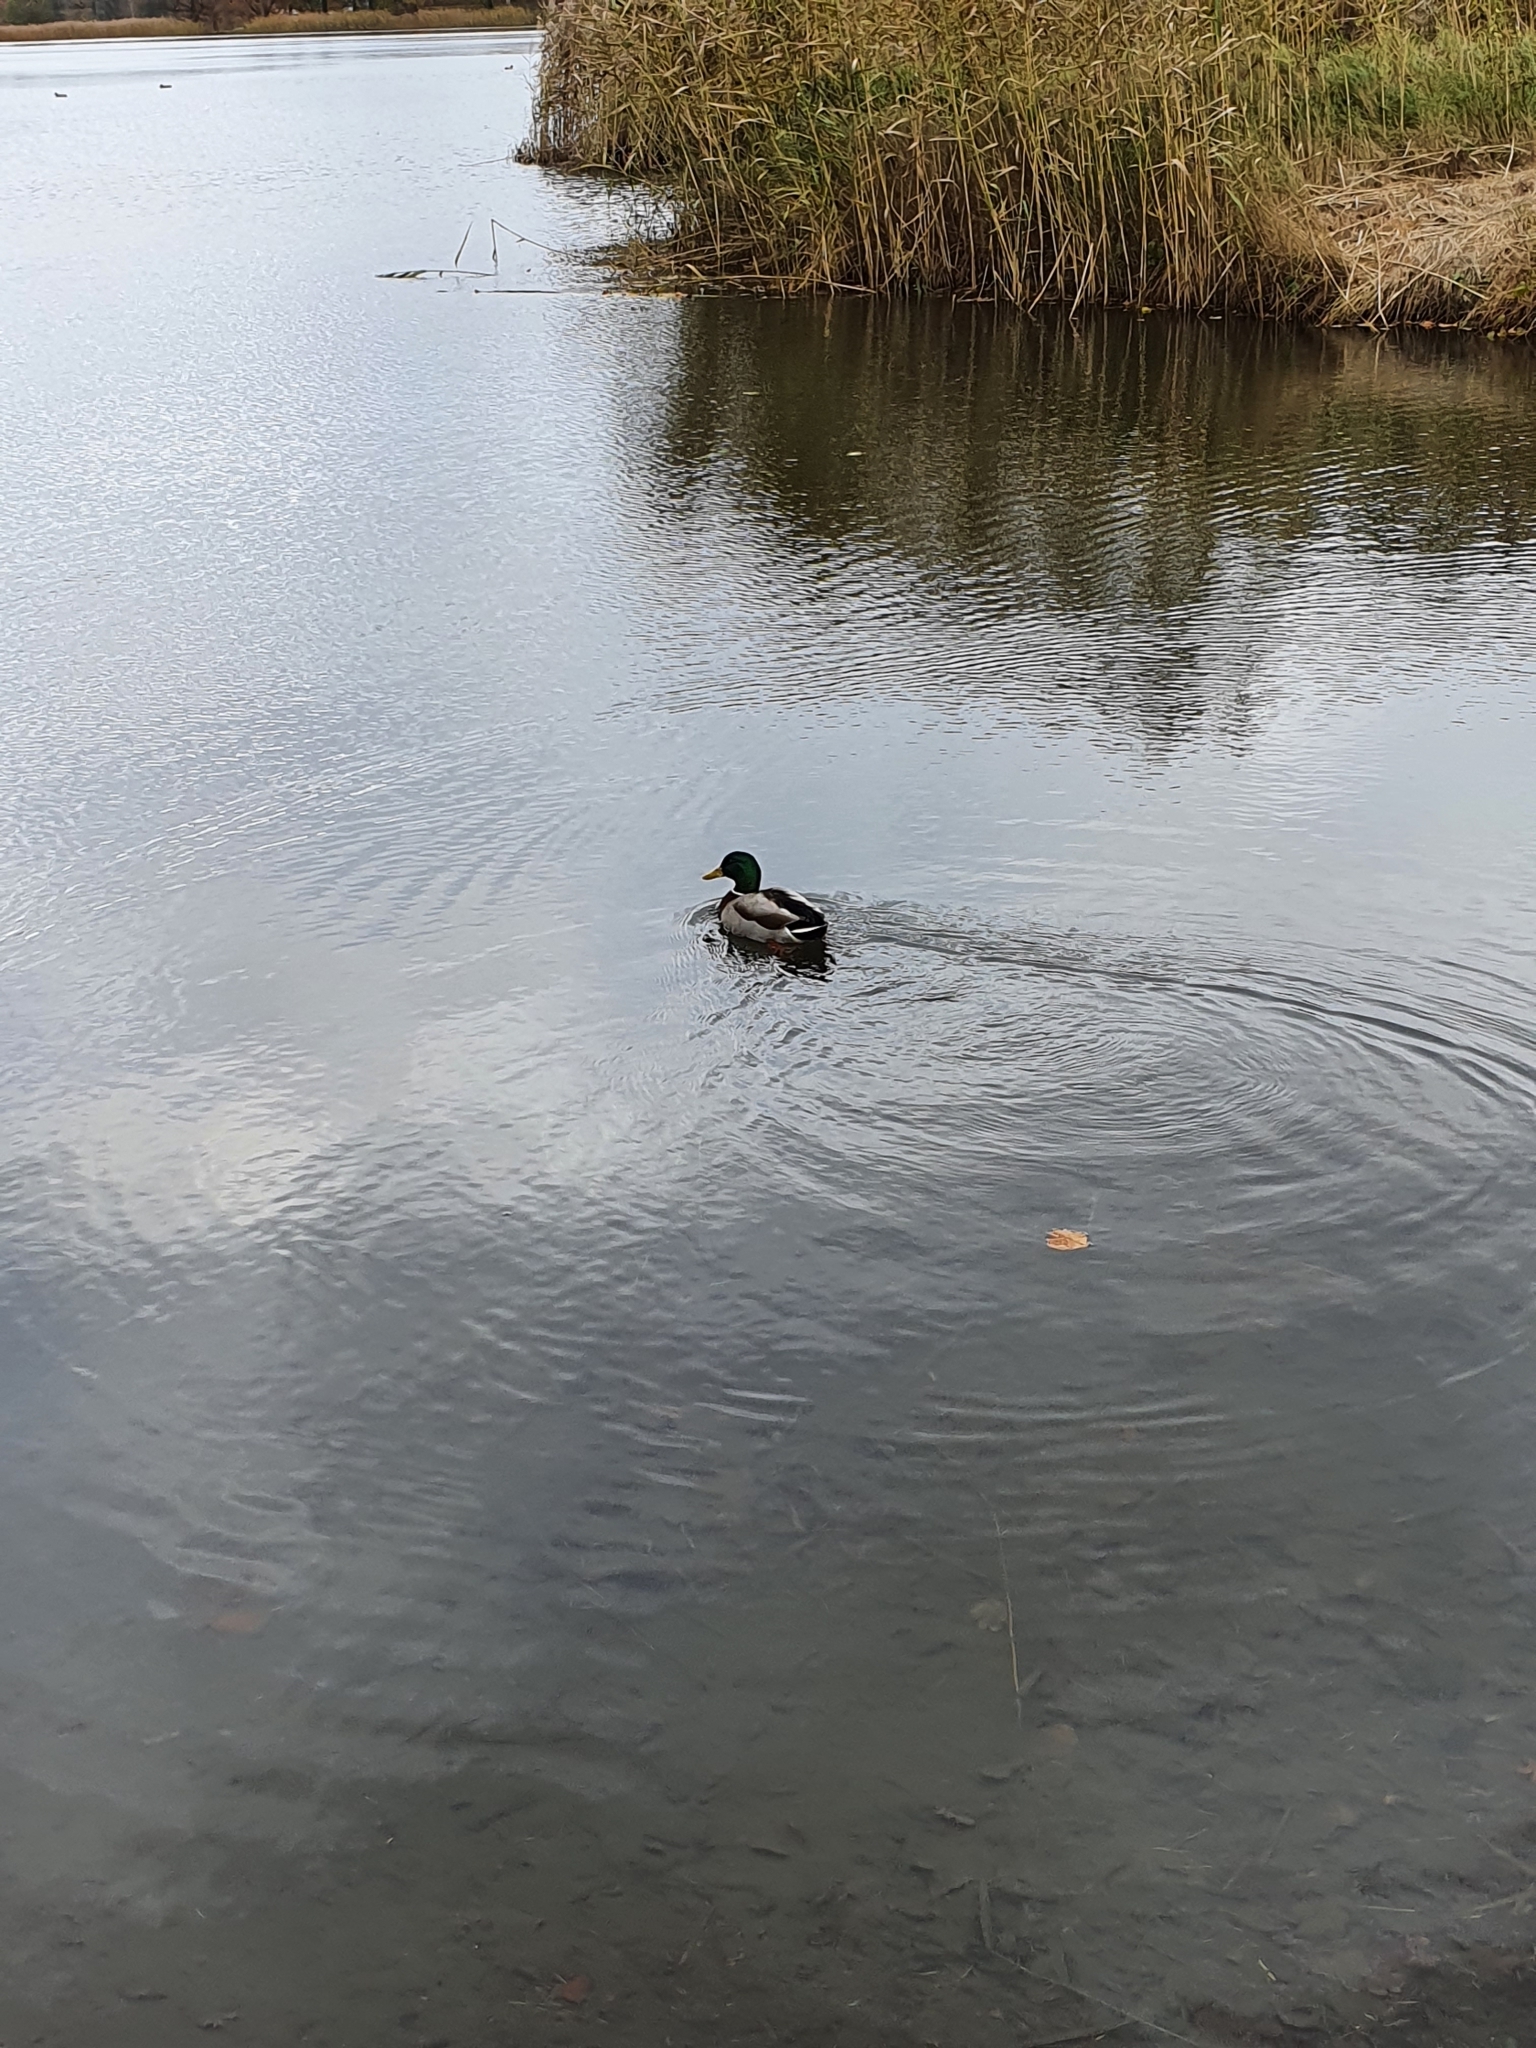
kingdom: Animalia
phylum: Chordata
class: Aves
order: Anseriformes
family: Anatidae
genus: Anas
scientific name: Anas platyrhynchos
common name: Mallard
